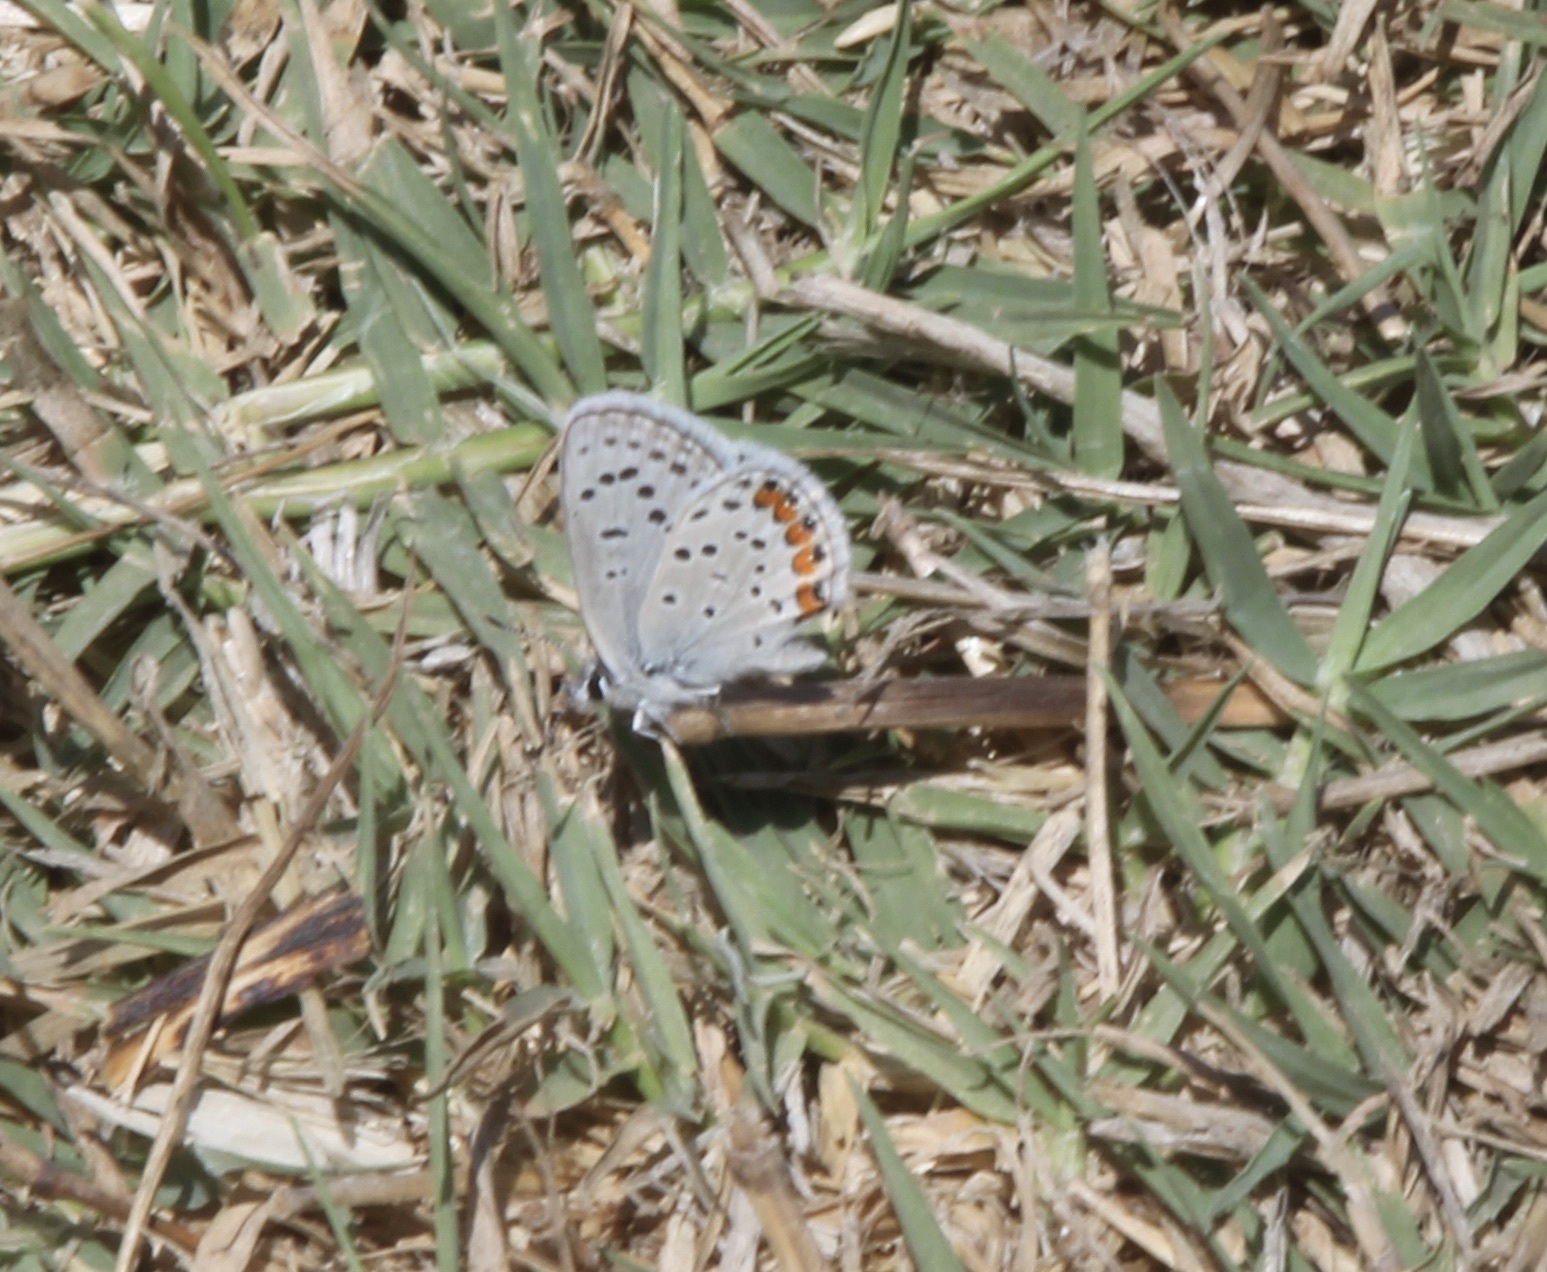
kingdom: Animalia
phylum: Arthropoda
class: Insecta
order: Lepidoptera
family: Lycaenidae
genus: Icaricia
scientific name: Icaricia acmon
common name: Acmon blue
